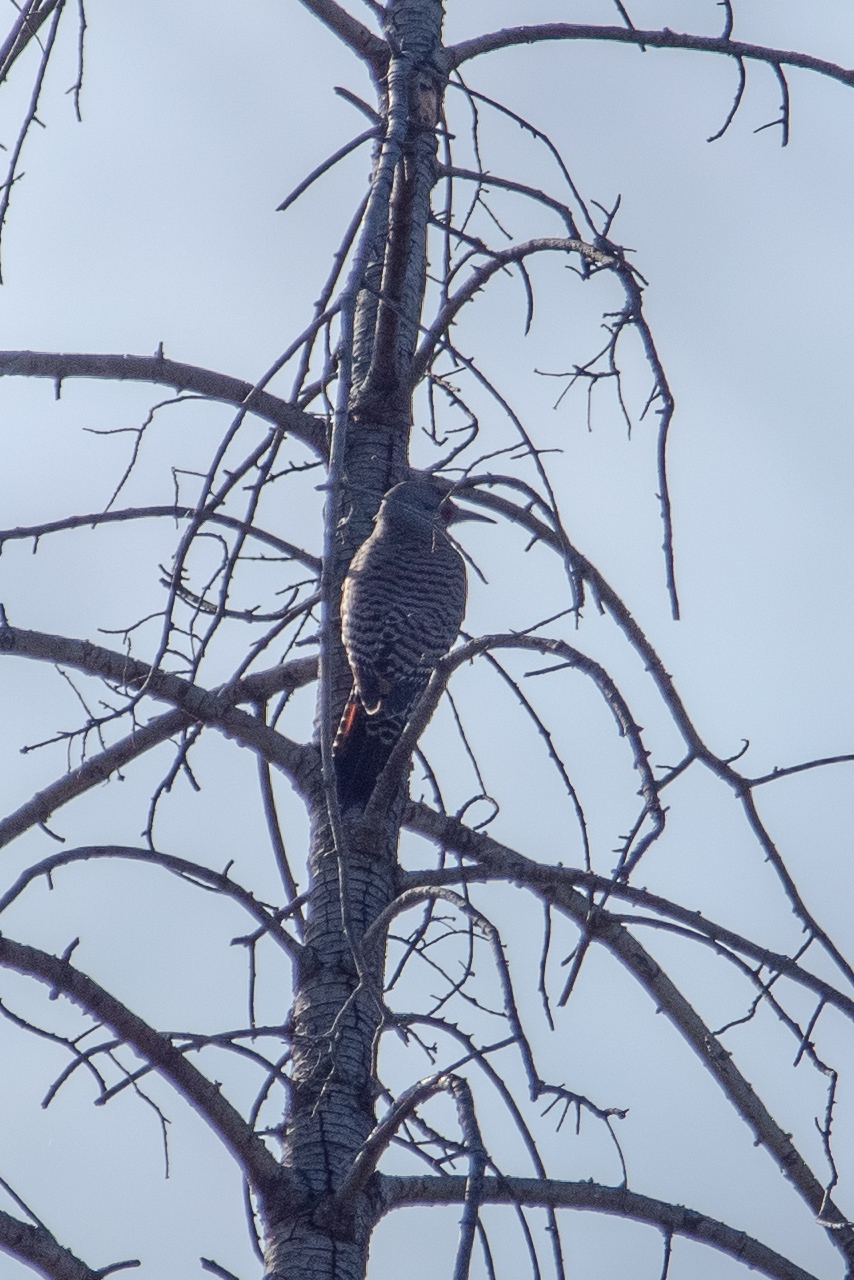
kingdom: Animalia
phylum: Chordata
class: Aves
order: Piciformes
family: Picidae
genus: Colaptes
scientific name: Colaptes auratus
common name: Northern flicker
